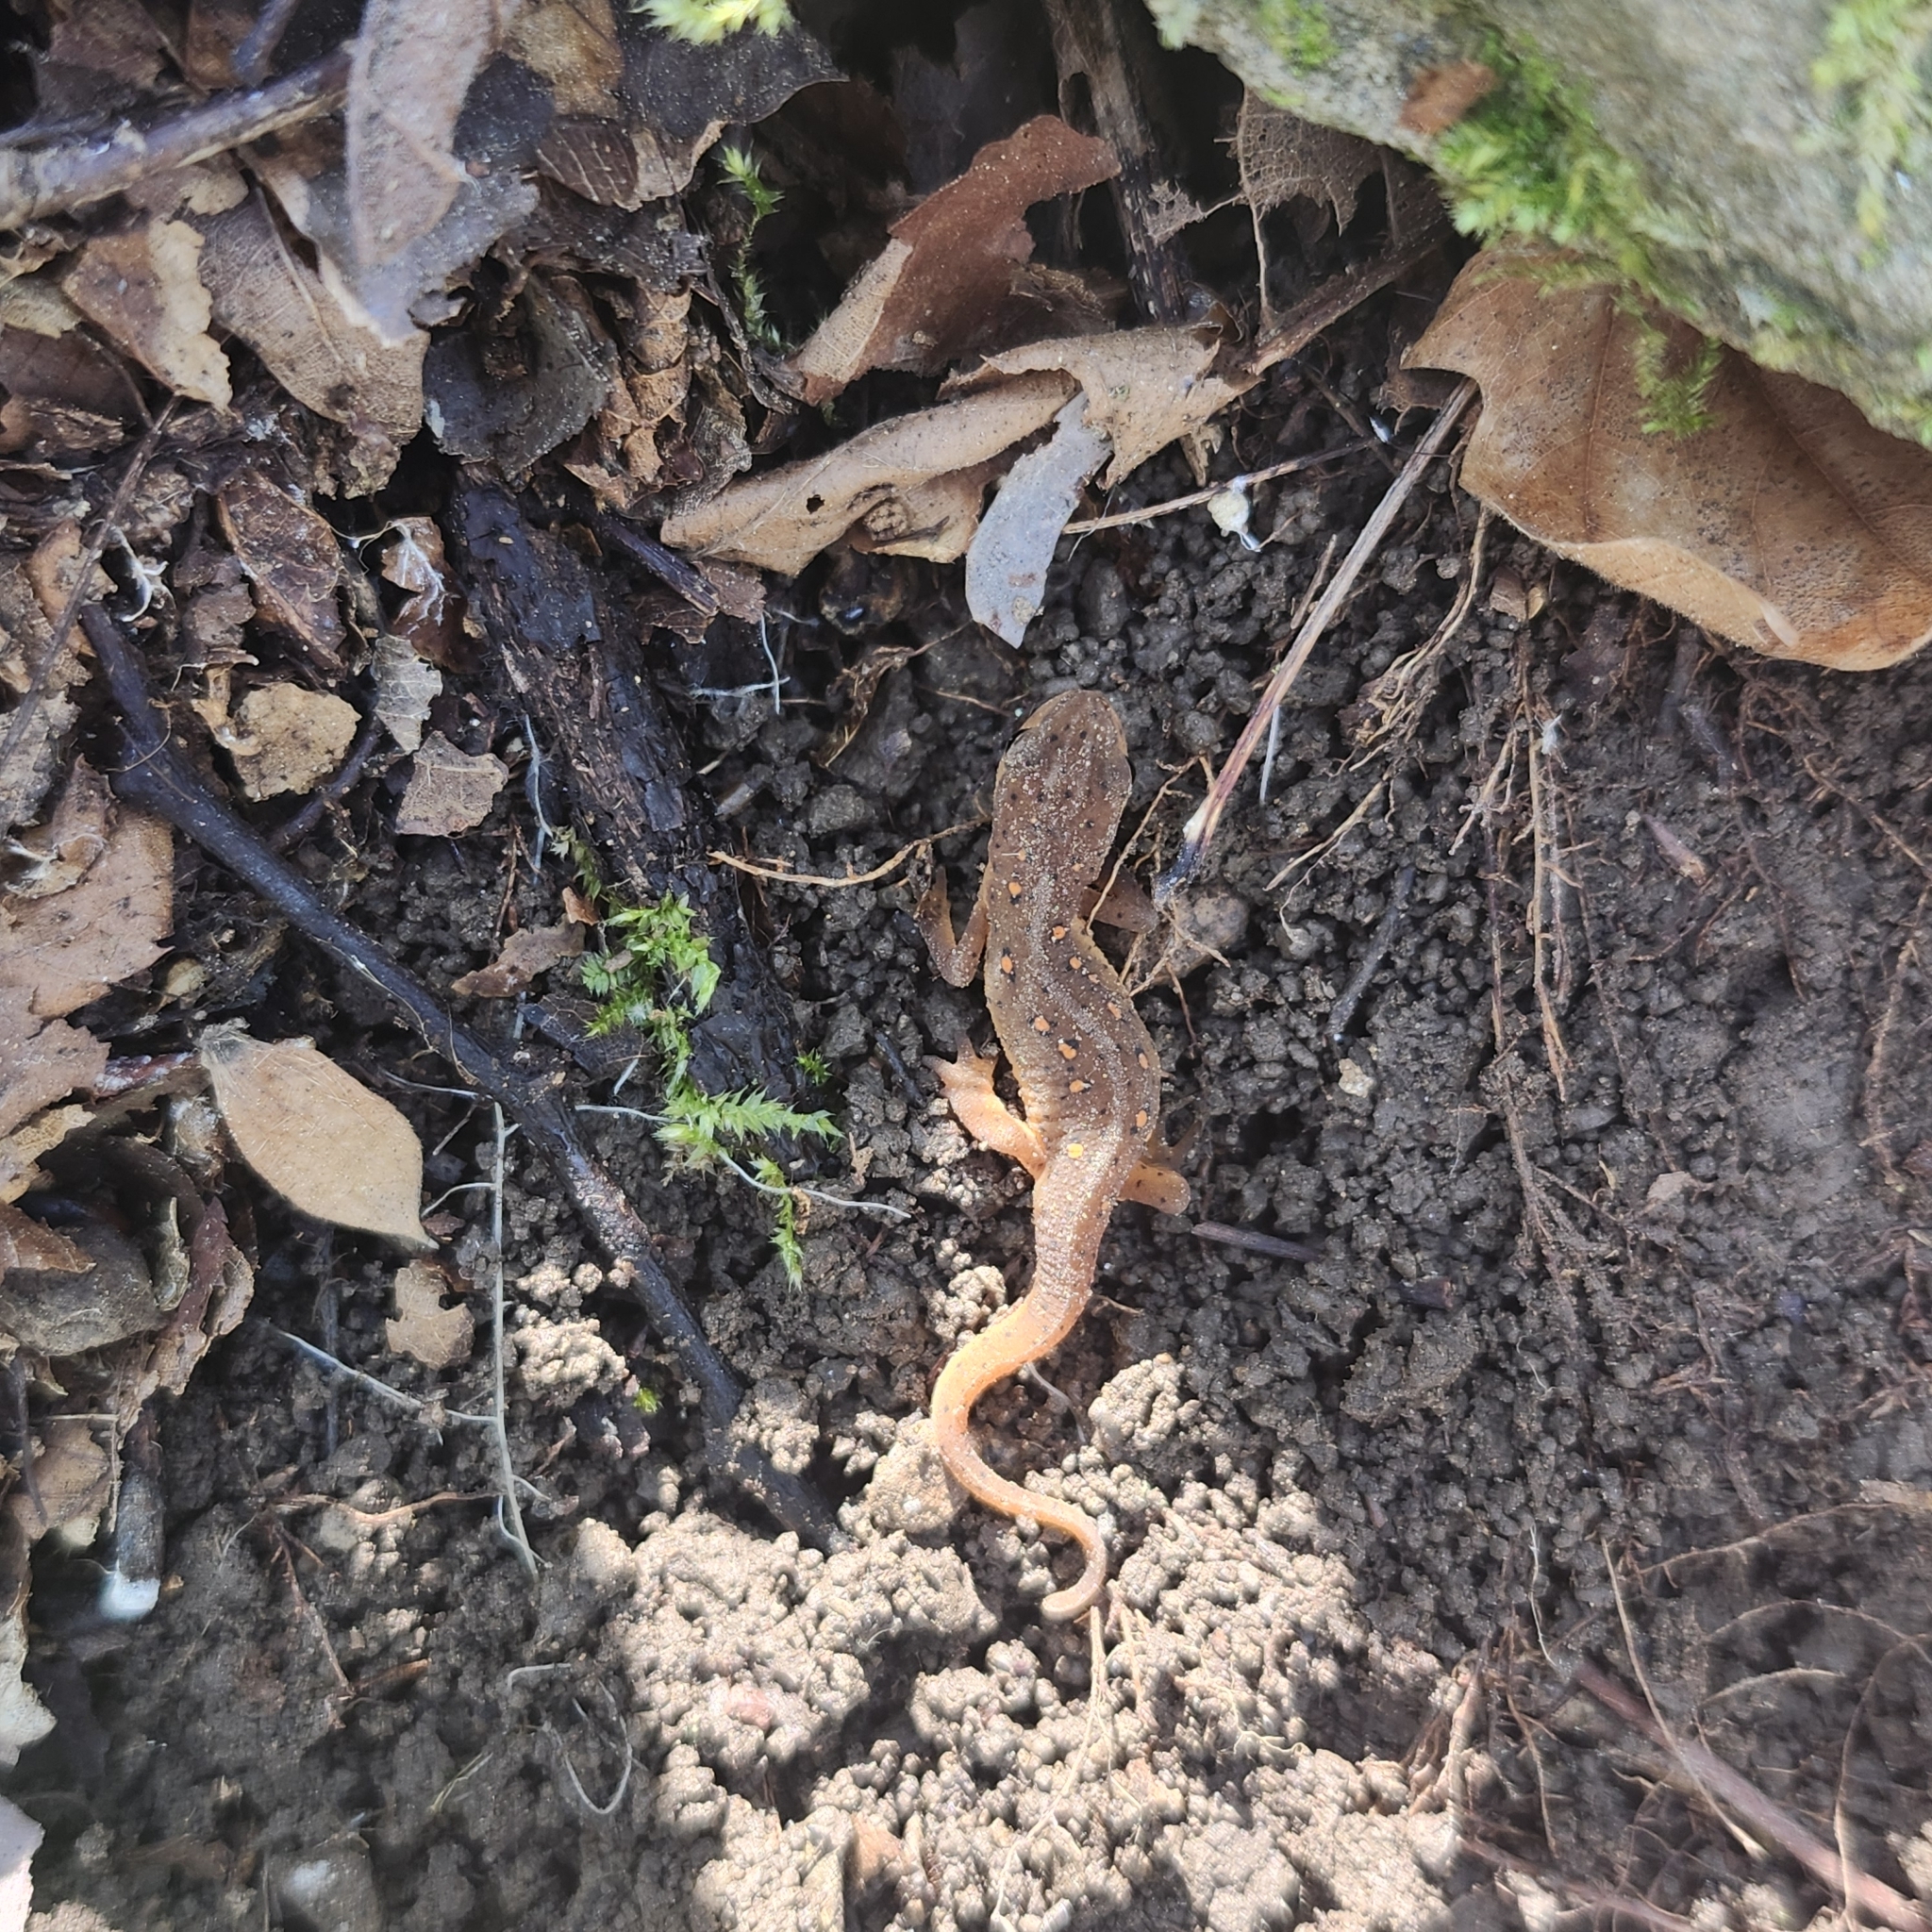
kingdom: Animalia
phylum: Chordata
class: Amphibia
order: Caudata
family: Salamandridae
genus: Notophthalmus
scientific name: Notophthalmus viridescens
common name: Eastern newt
